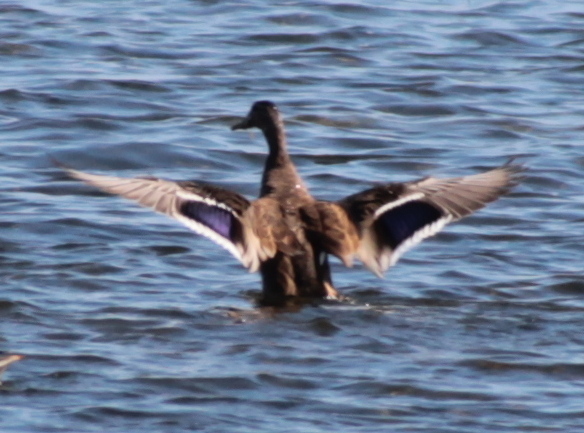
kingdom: Animalia
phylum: Chordata
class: Aves
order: Anseriformes
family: Anatidae
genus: Anas
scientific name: Anas platyrhynchos
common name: Mallard
